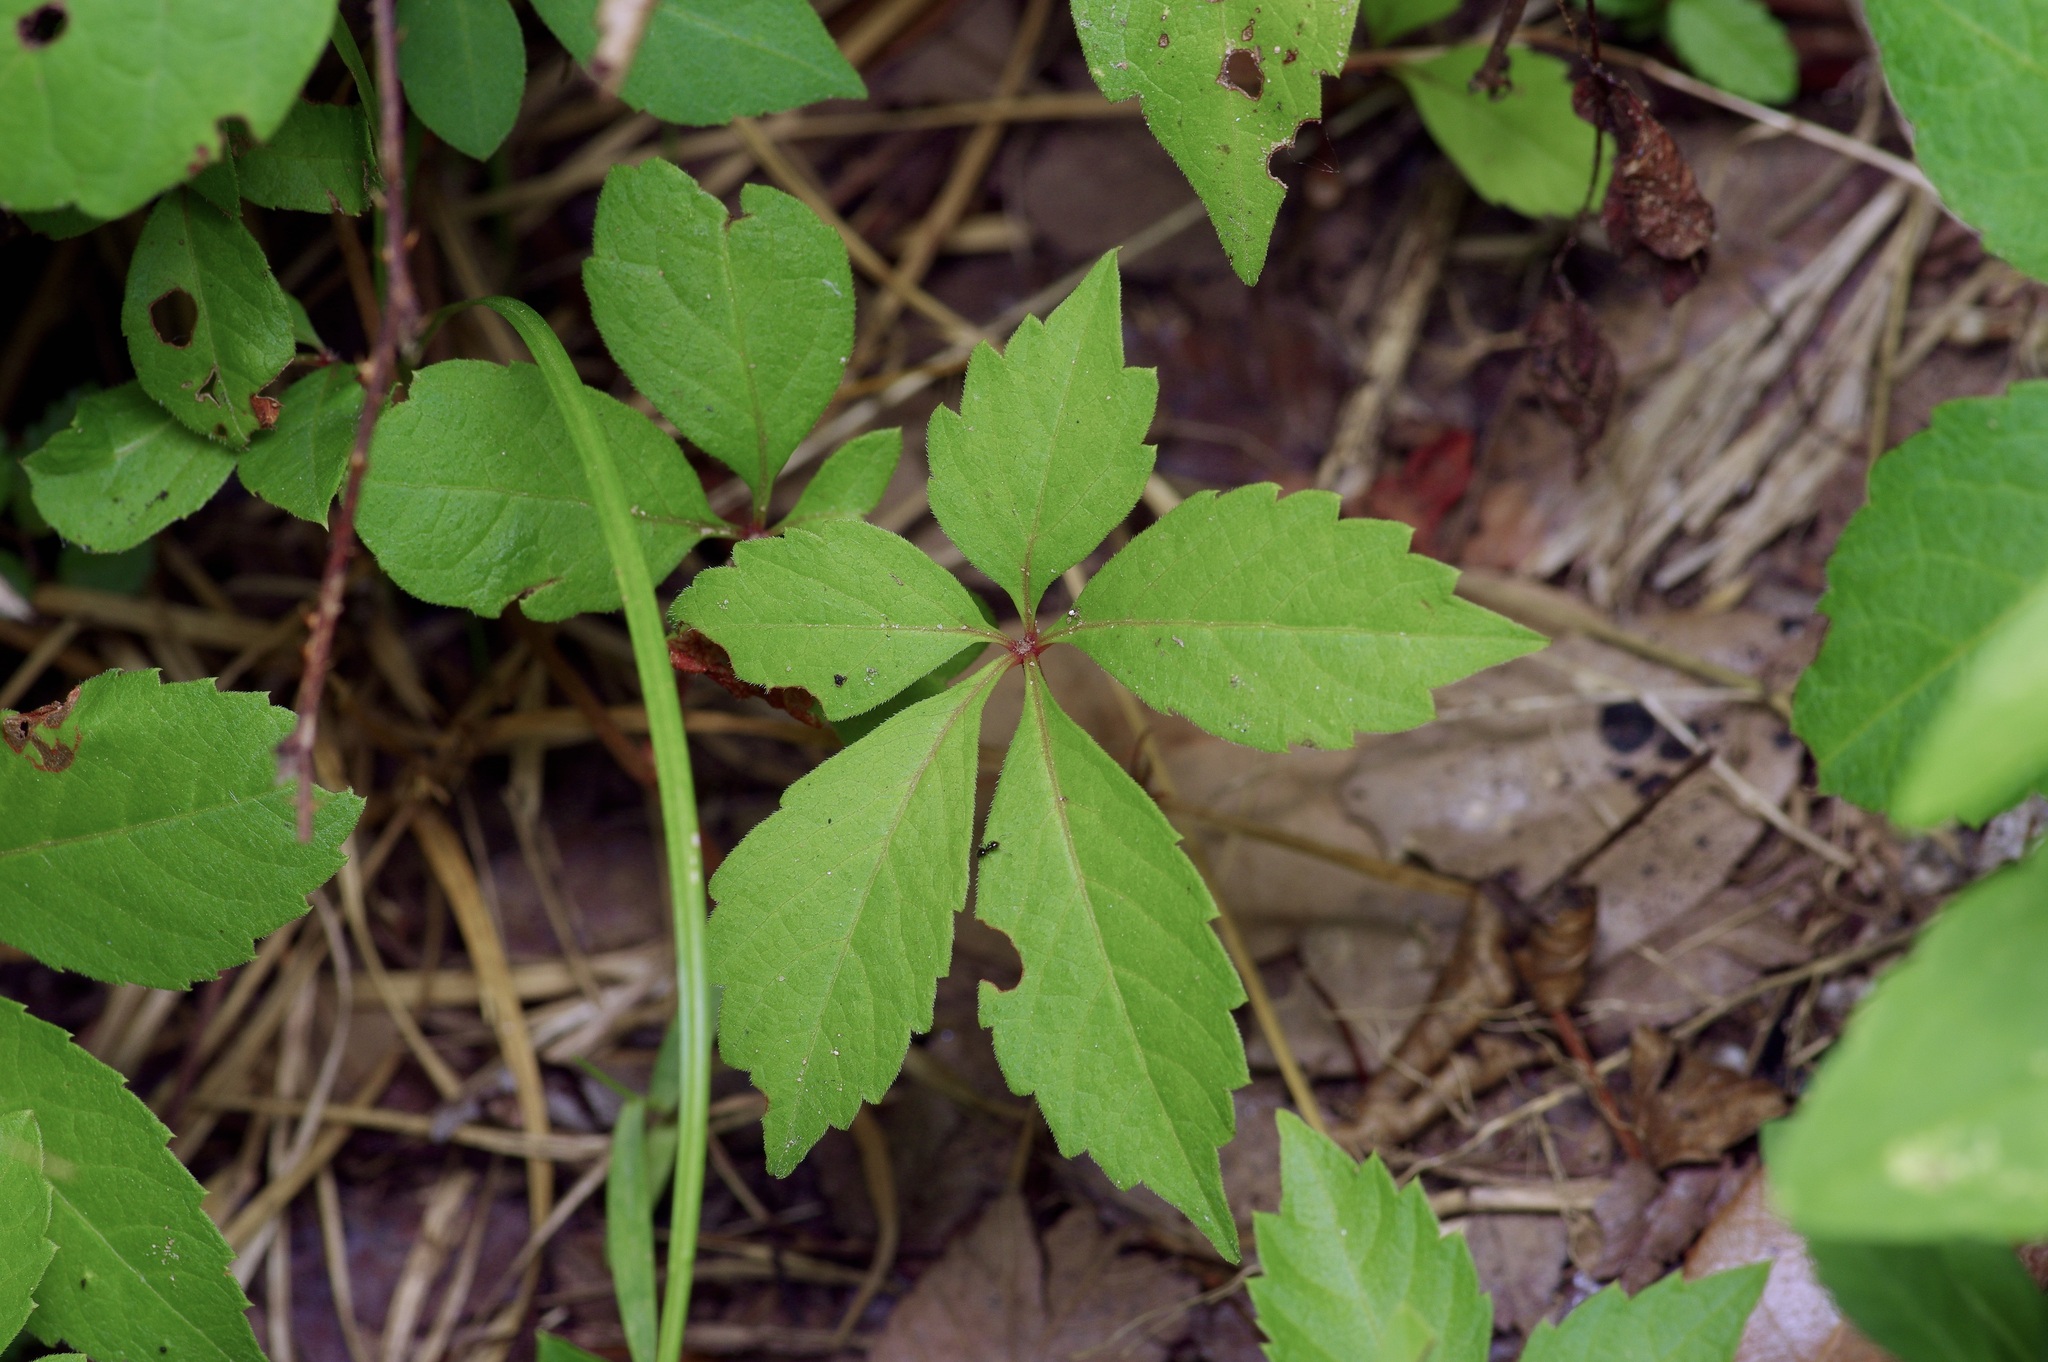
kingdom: Plantae
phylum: Tracheophyta
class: Magnoliopsida
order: Vitales
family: Vitaceae
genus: Parthenocissus
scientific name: Parthenocissus quinquefolia
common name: Virginia-creeper
